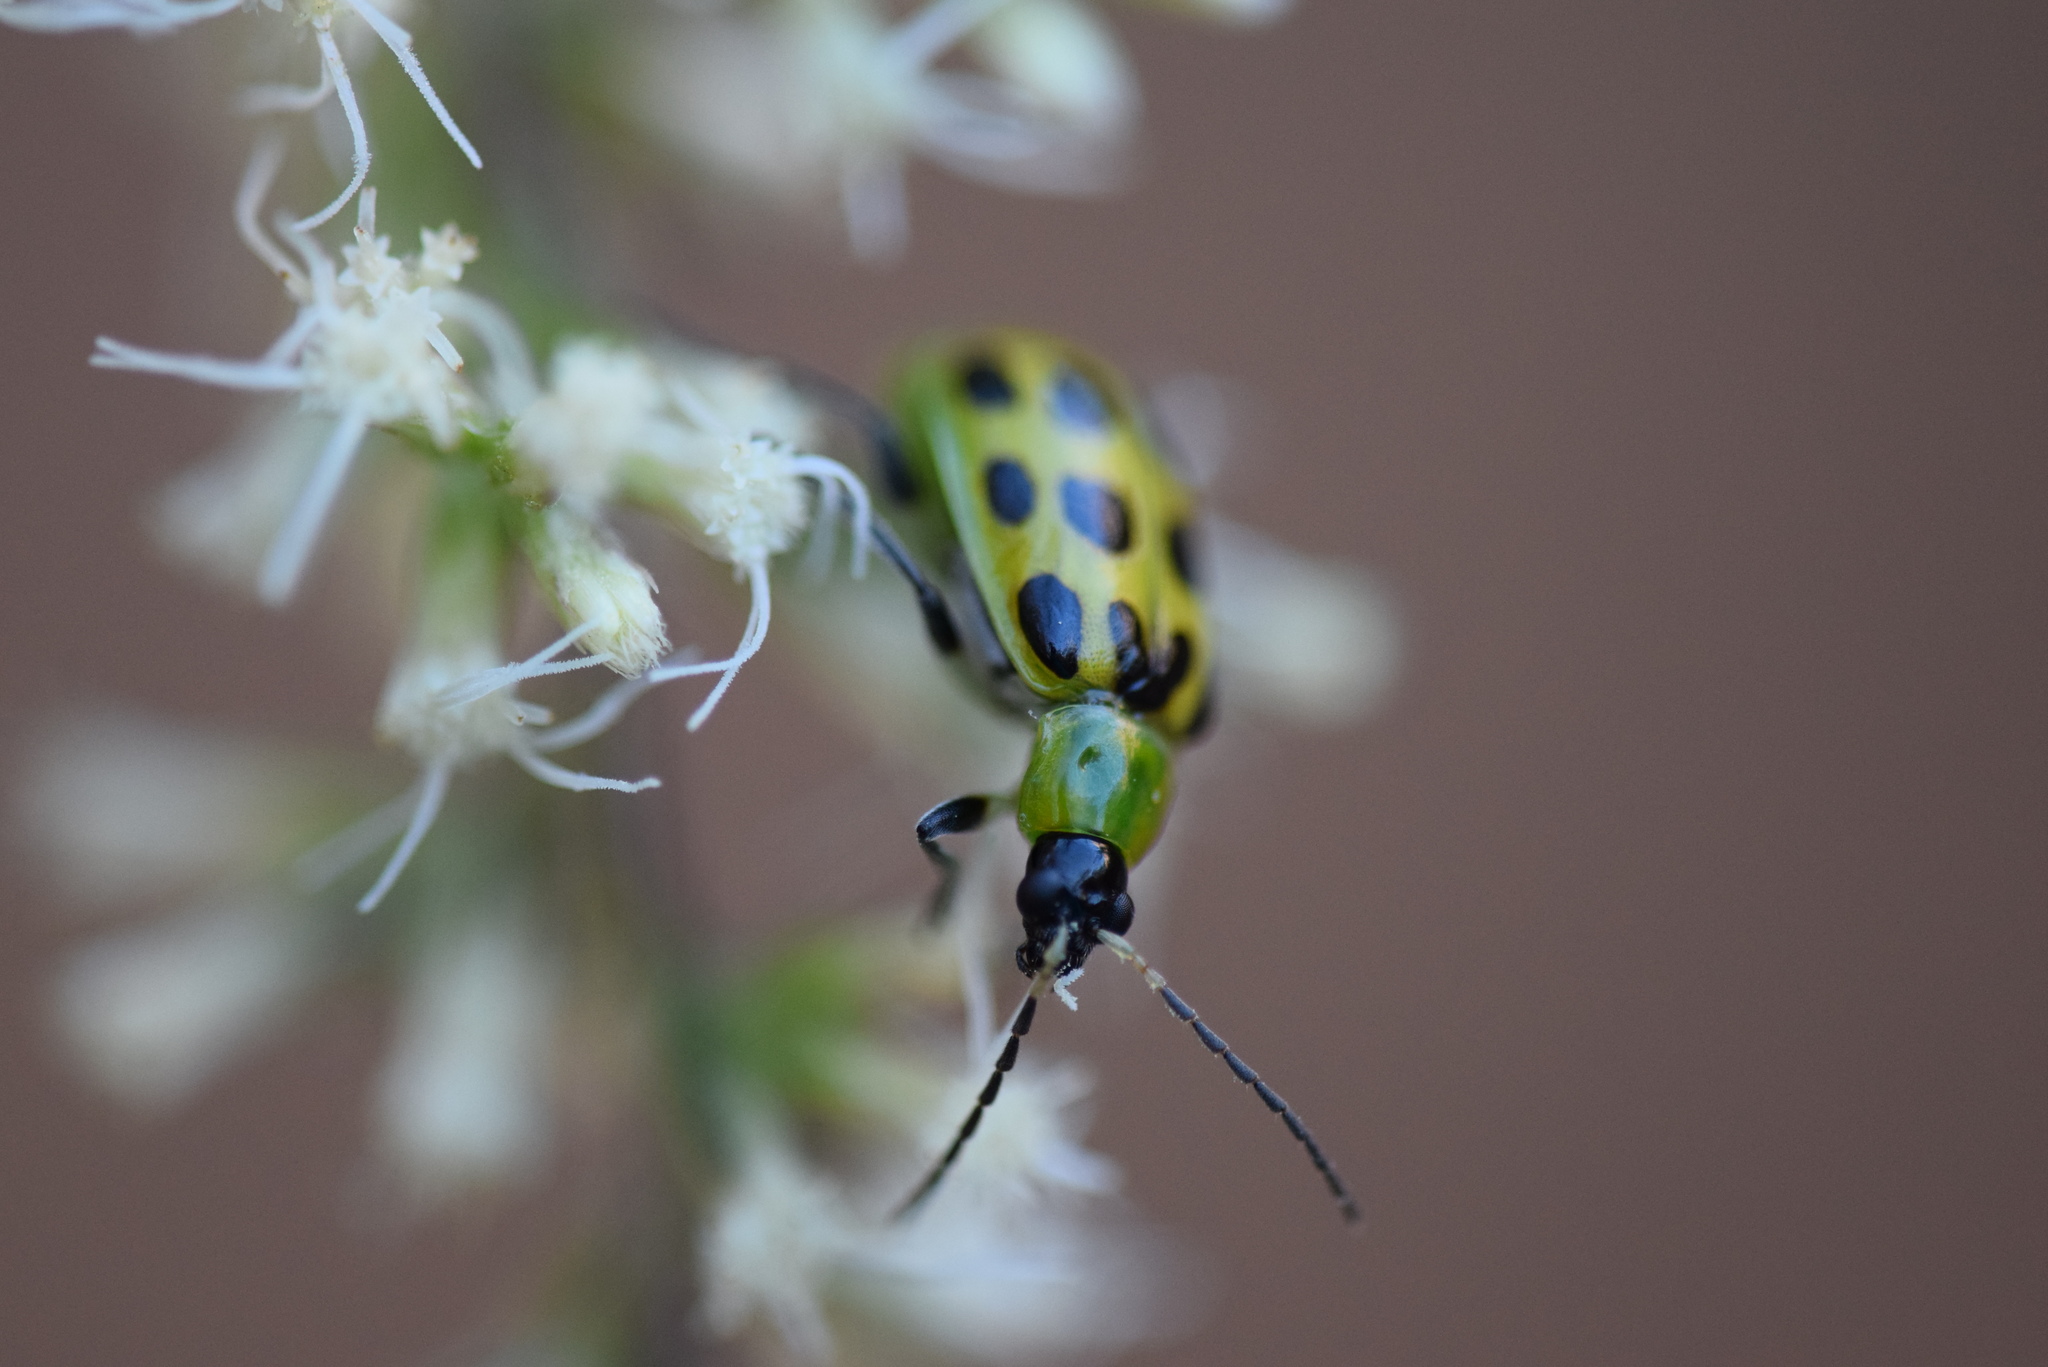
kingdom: Animalia
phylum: Arthropoda
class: Insecta
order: Coleoptera
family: Chrysomelidae
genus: Diabrotica
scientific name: Diabrotica undecimpunctata
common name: Spotted cucumber beetle
